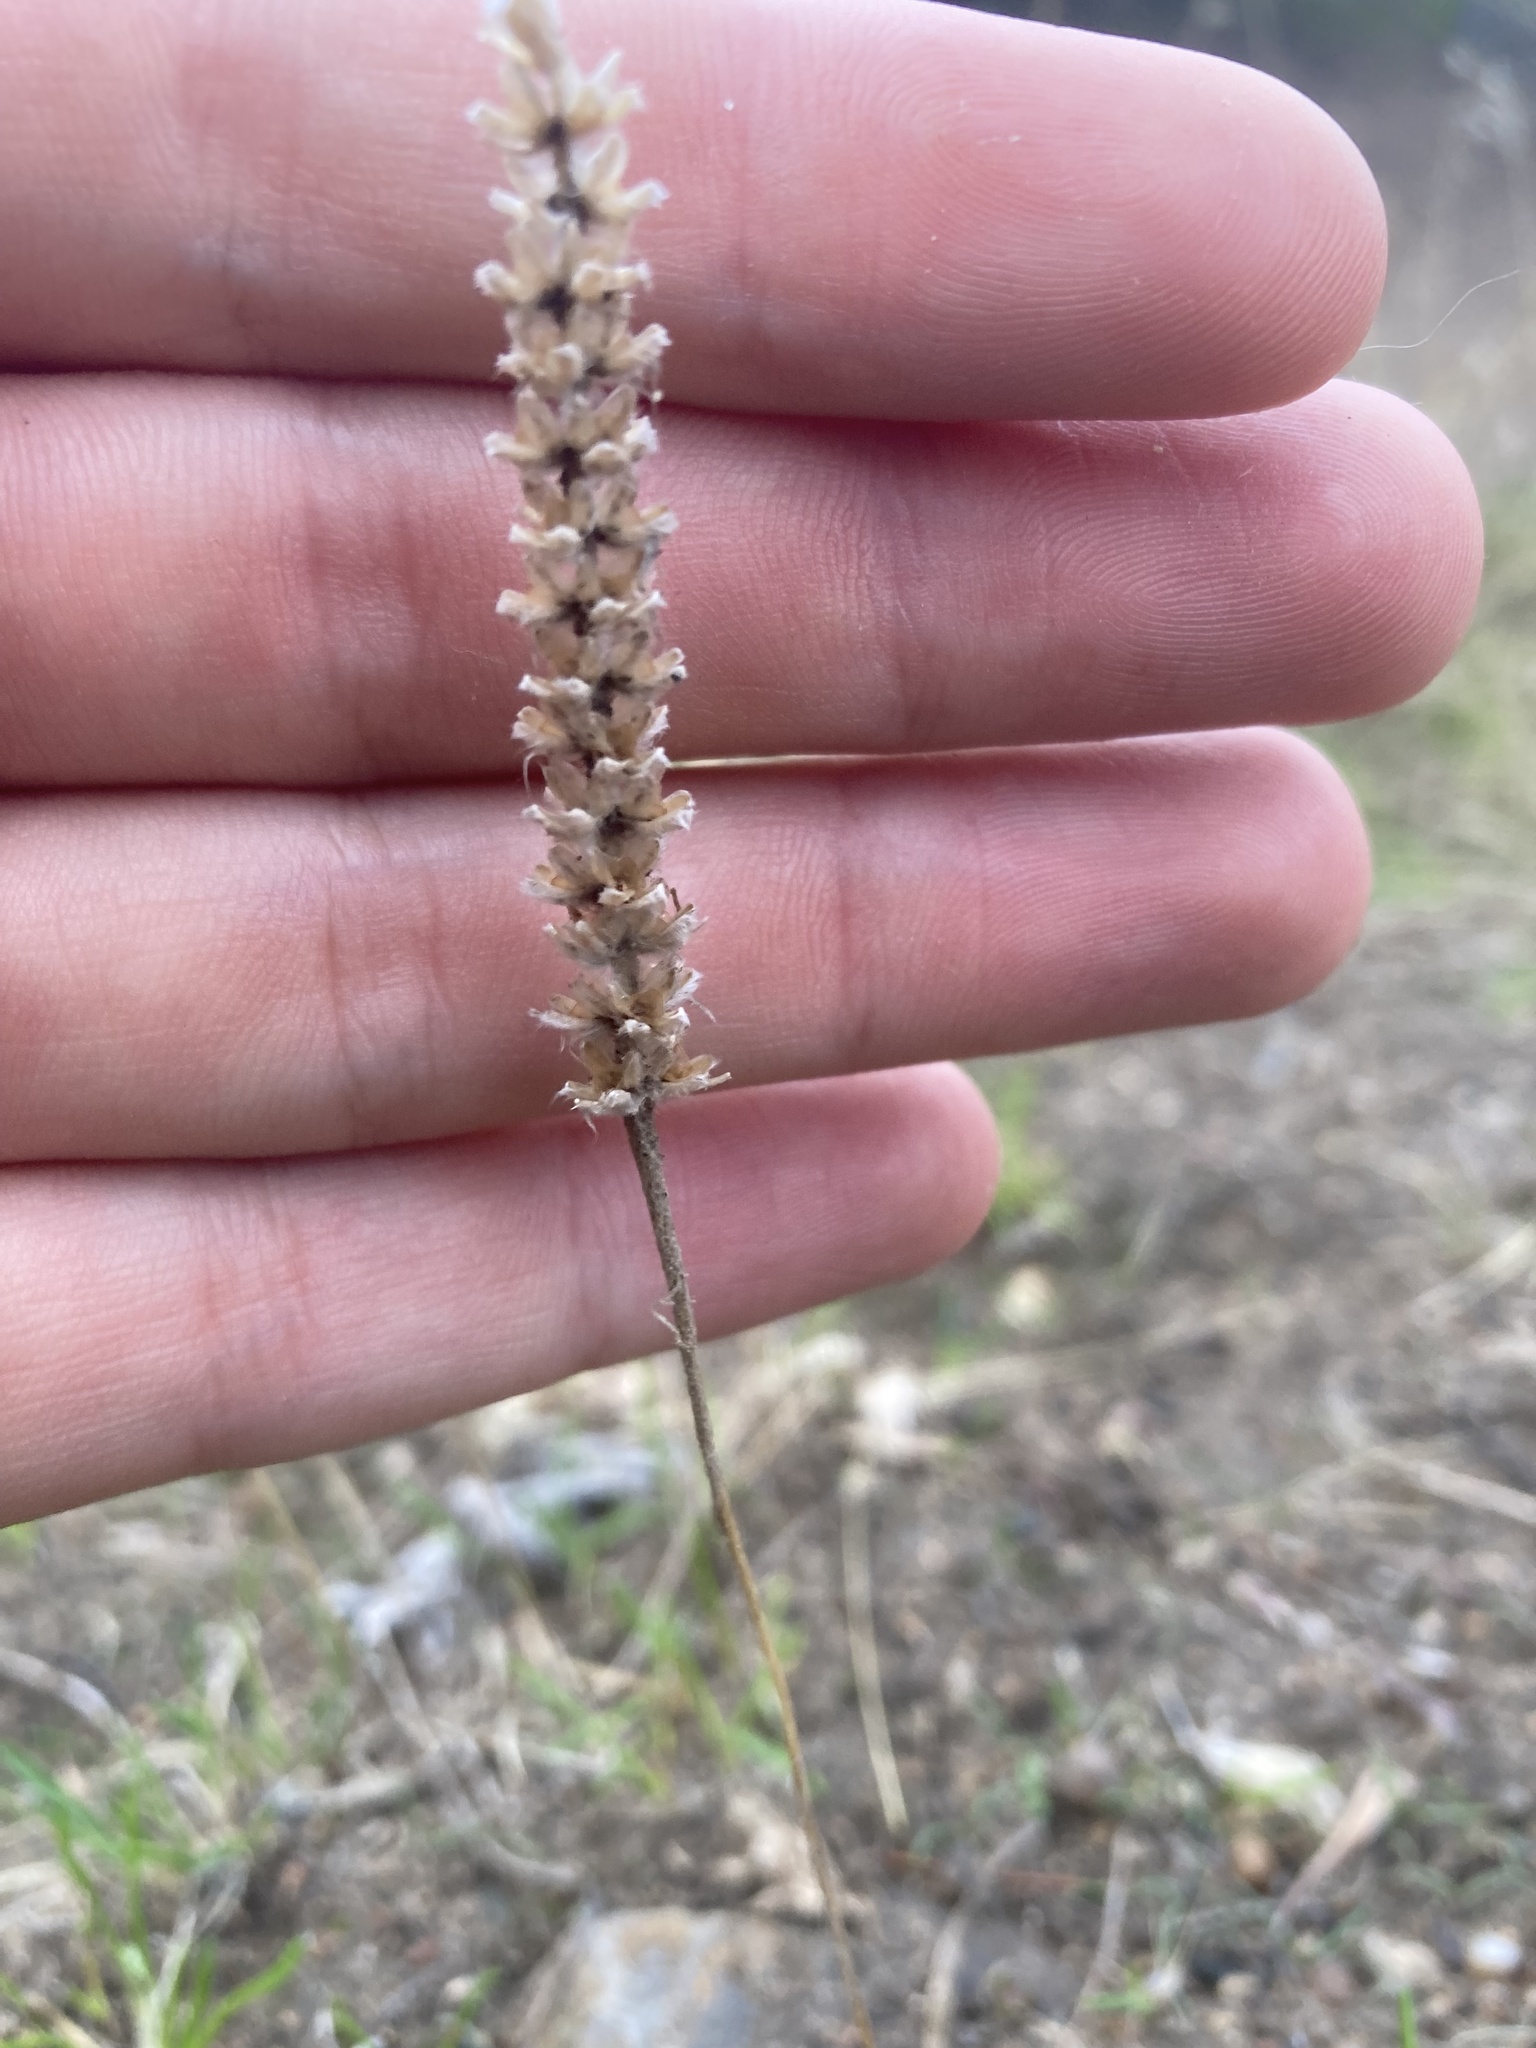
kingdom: Plantae
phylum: Tracheophyta
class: Magnoliopsida
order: Lamiales
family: Plantaginaceae
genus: Plantago
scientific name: Plantago patagonica
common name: Patagonia indian-wheat
